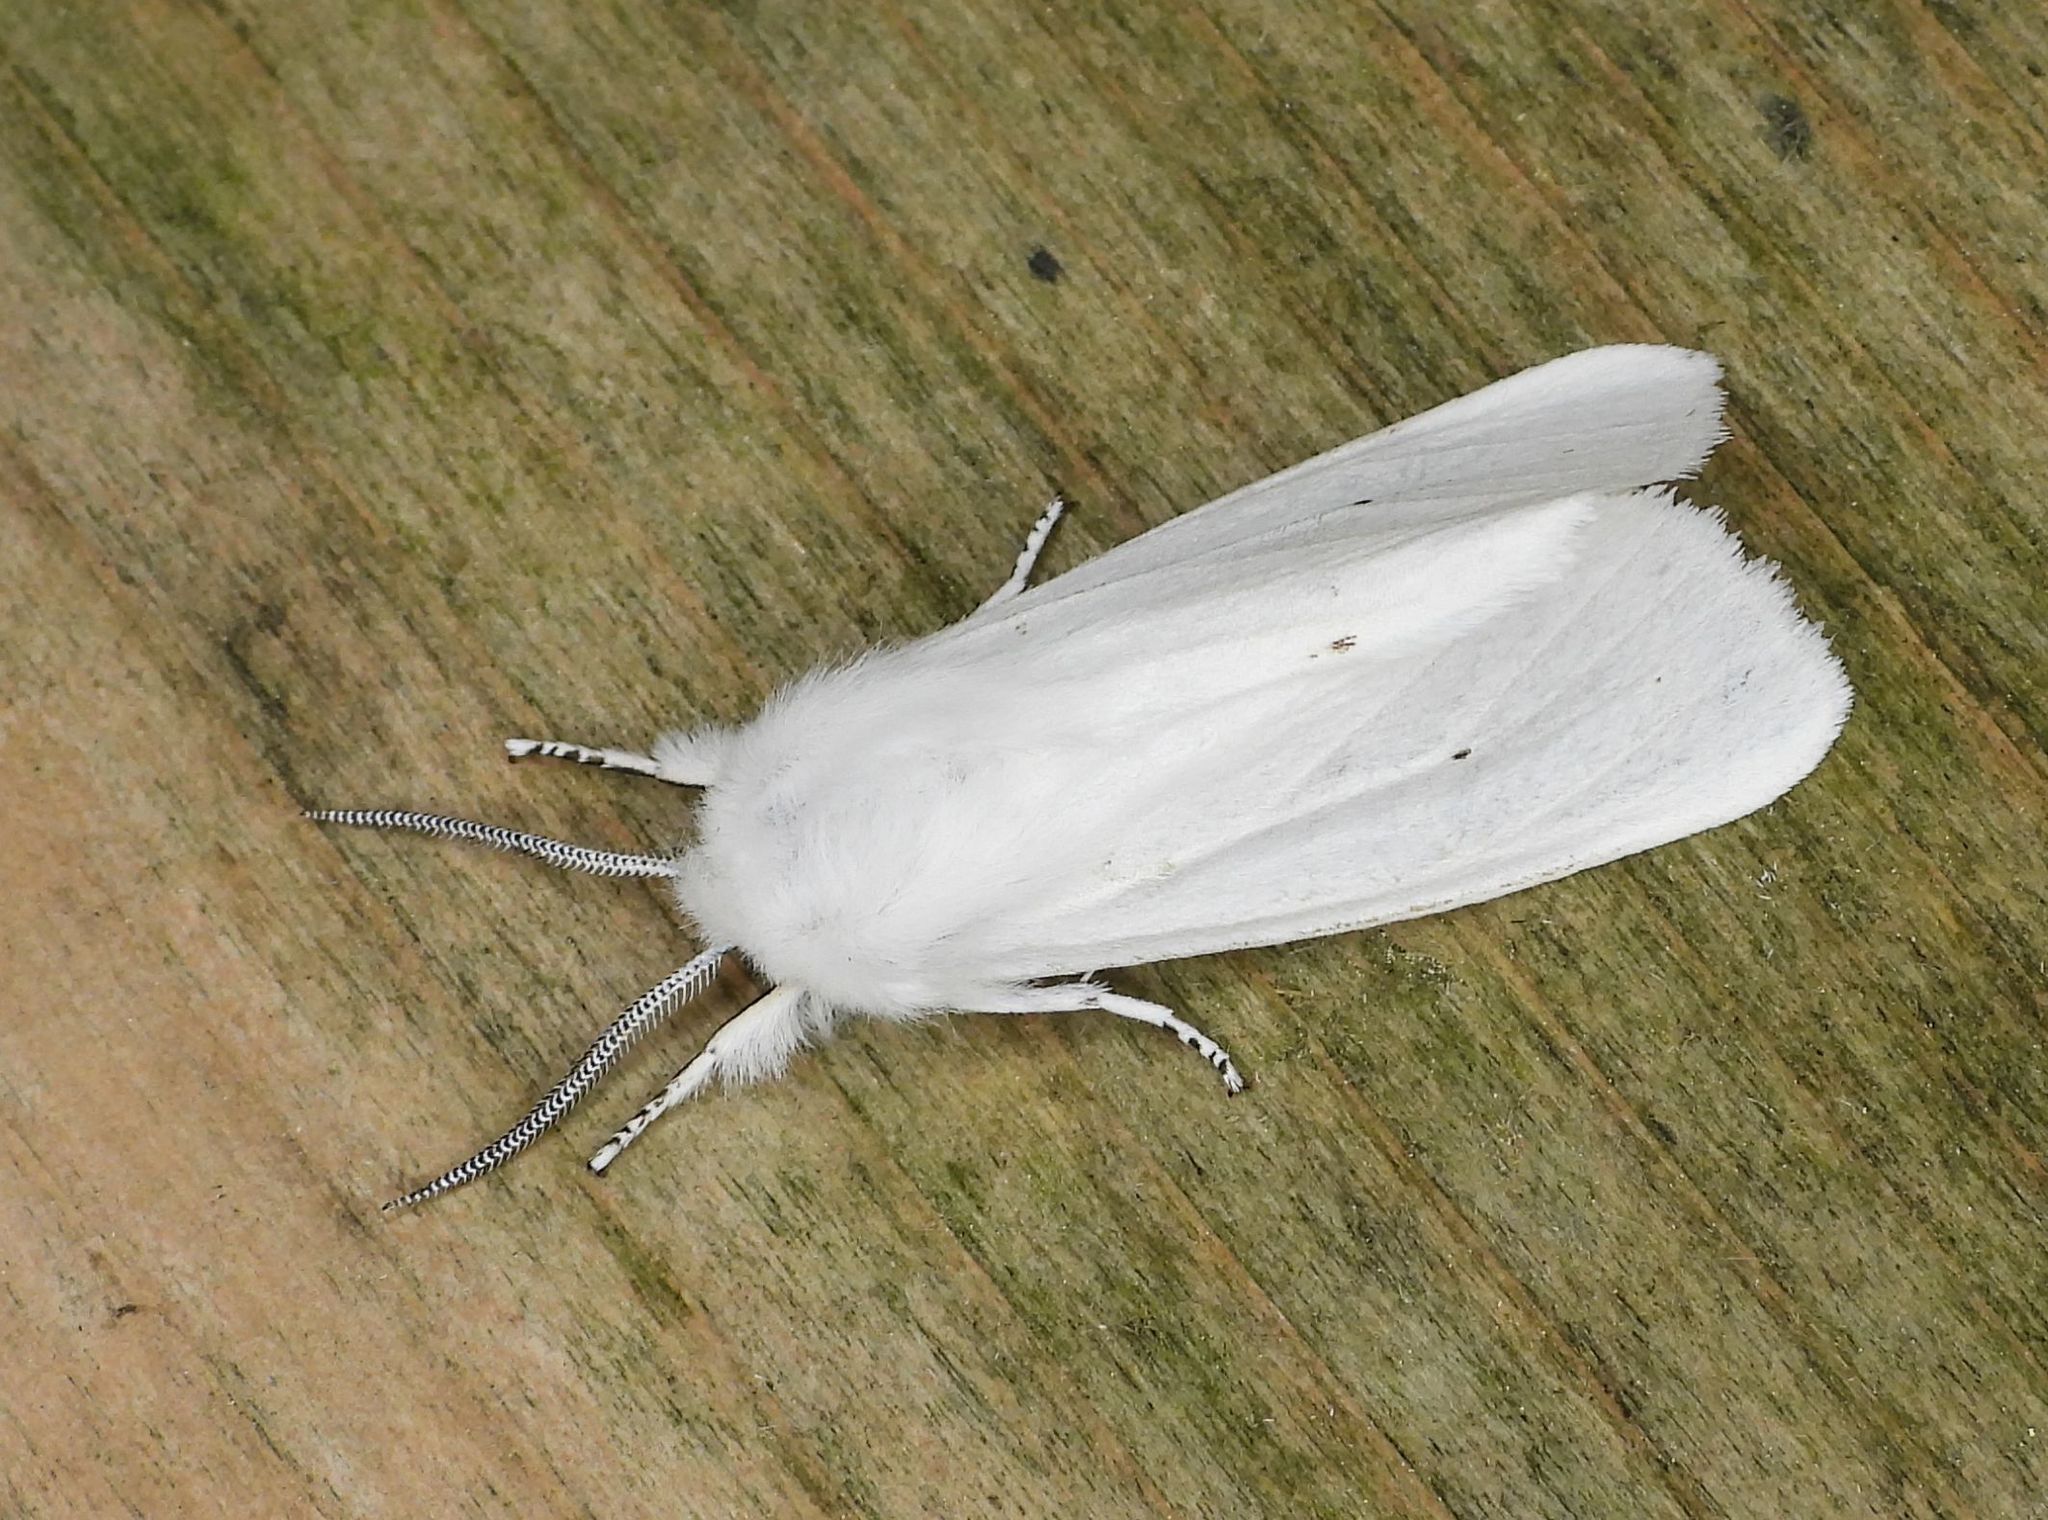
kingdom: Animalia
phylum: Arthropoda
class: Insecta
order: Lepidoptera
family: Erebidae
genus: Spilosoma
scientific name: Spilosoma virginica
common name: Virginia tiger moth
